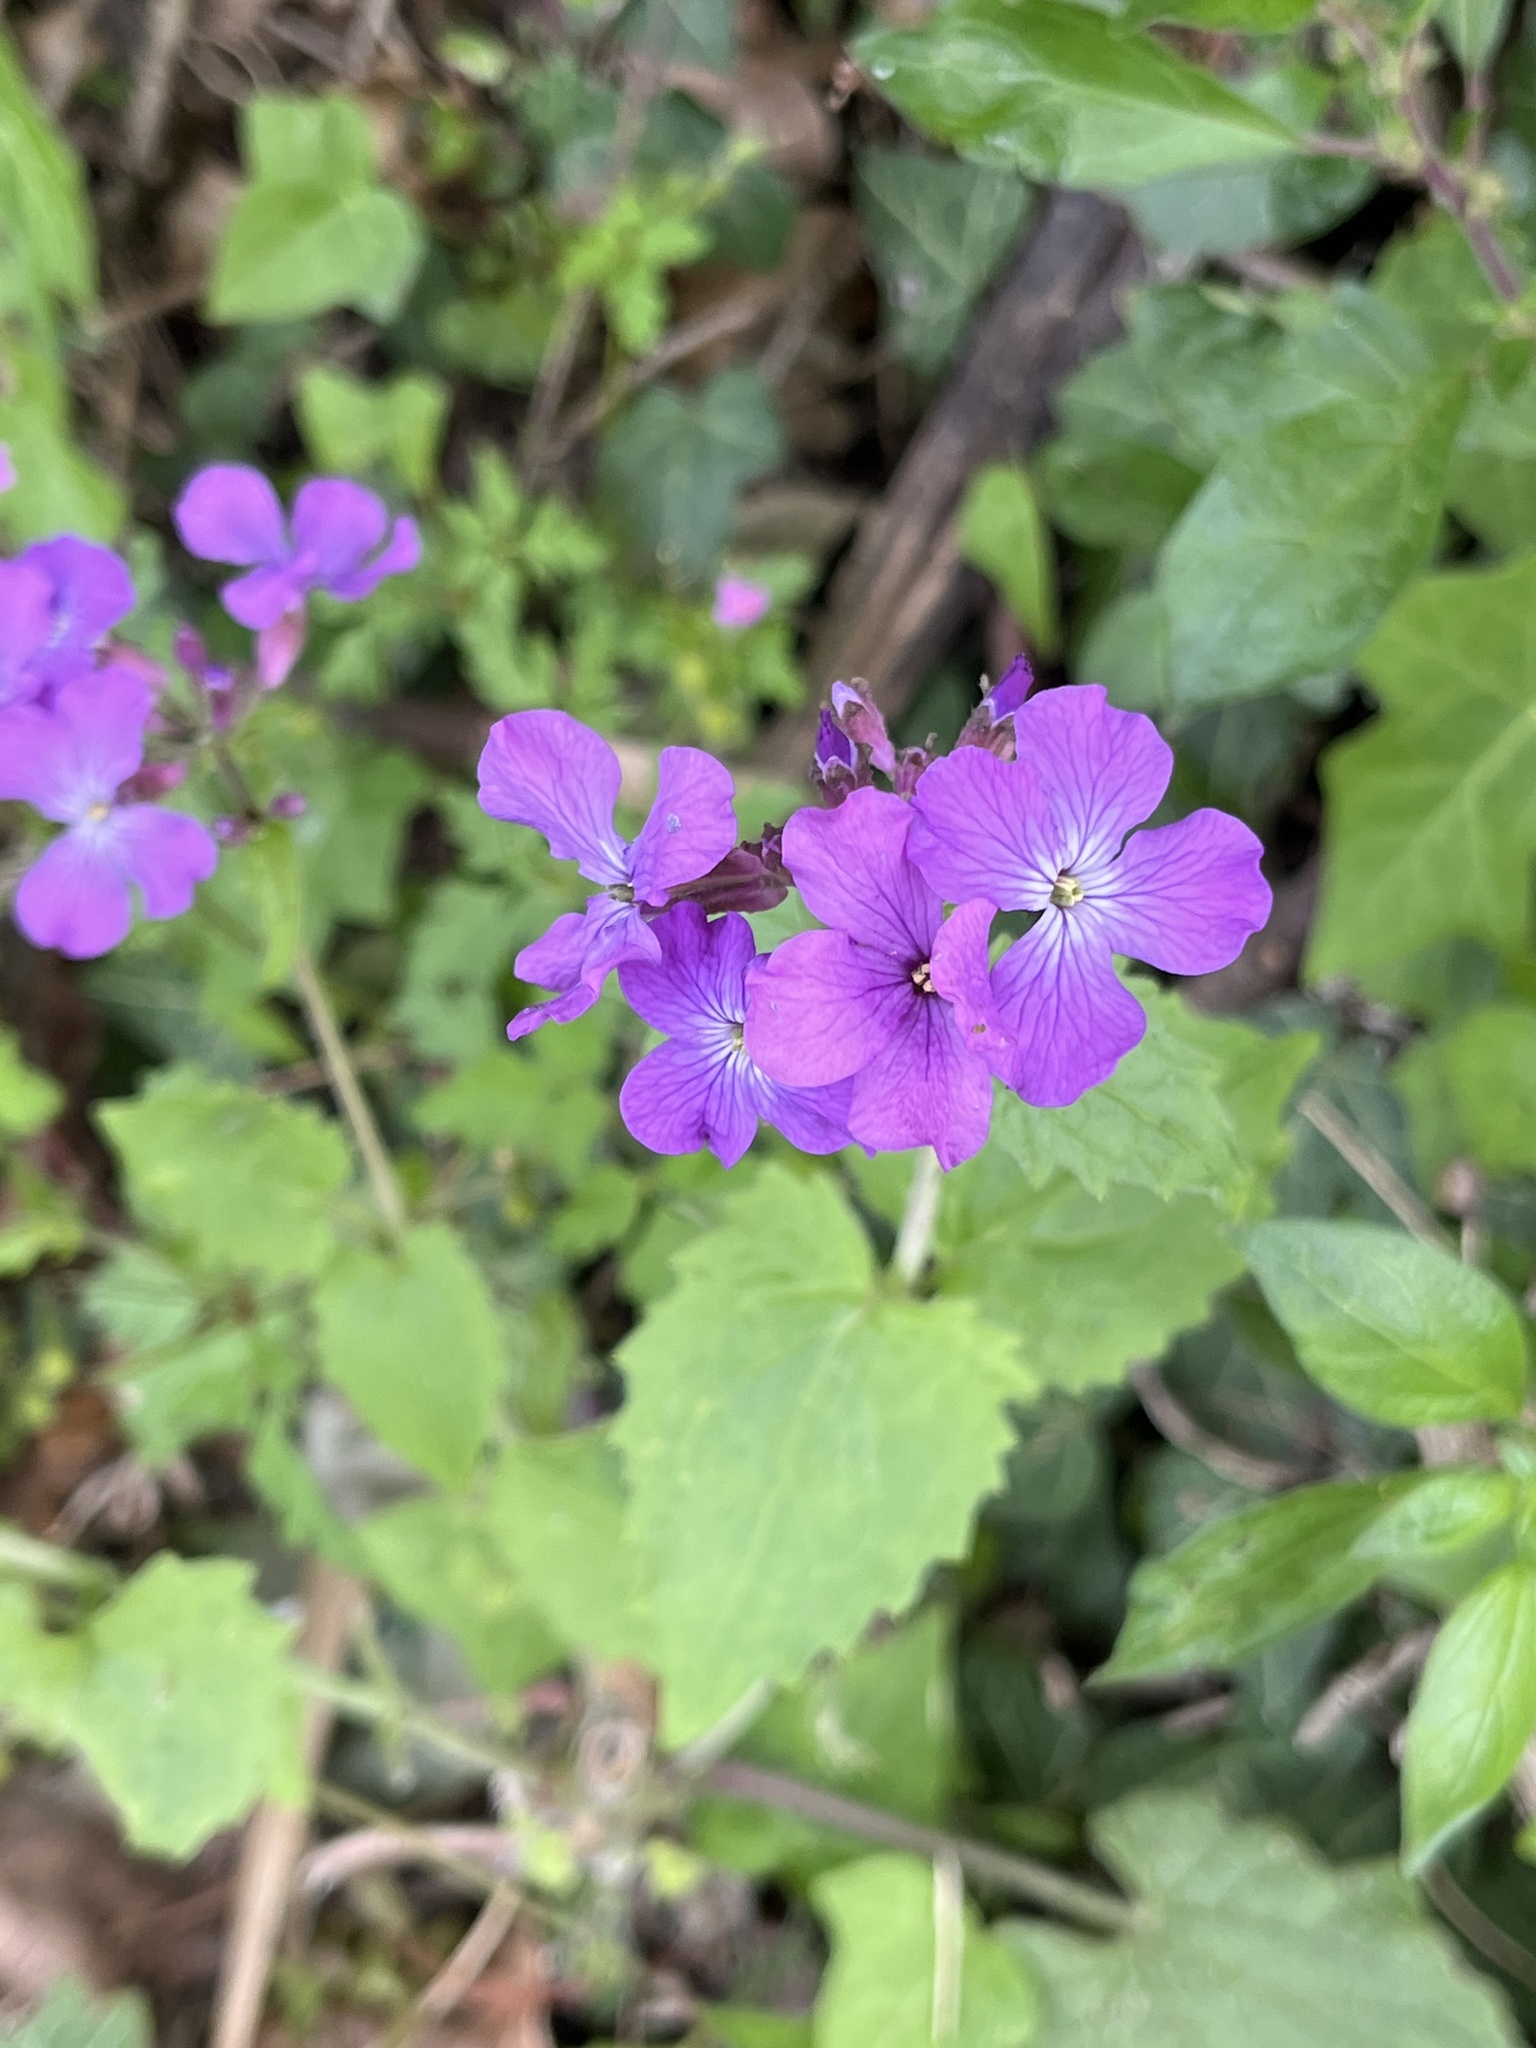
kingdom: Plantae
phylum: Tracheophyta
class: Magnoliopsida
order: Brassicales
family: Brassicaceae
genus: Lunaria
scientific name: Lunaria annua
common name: Honesty
